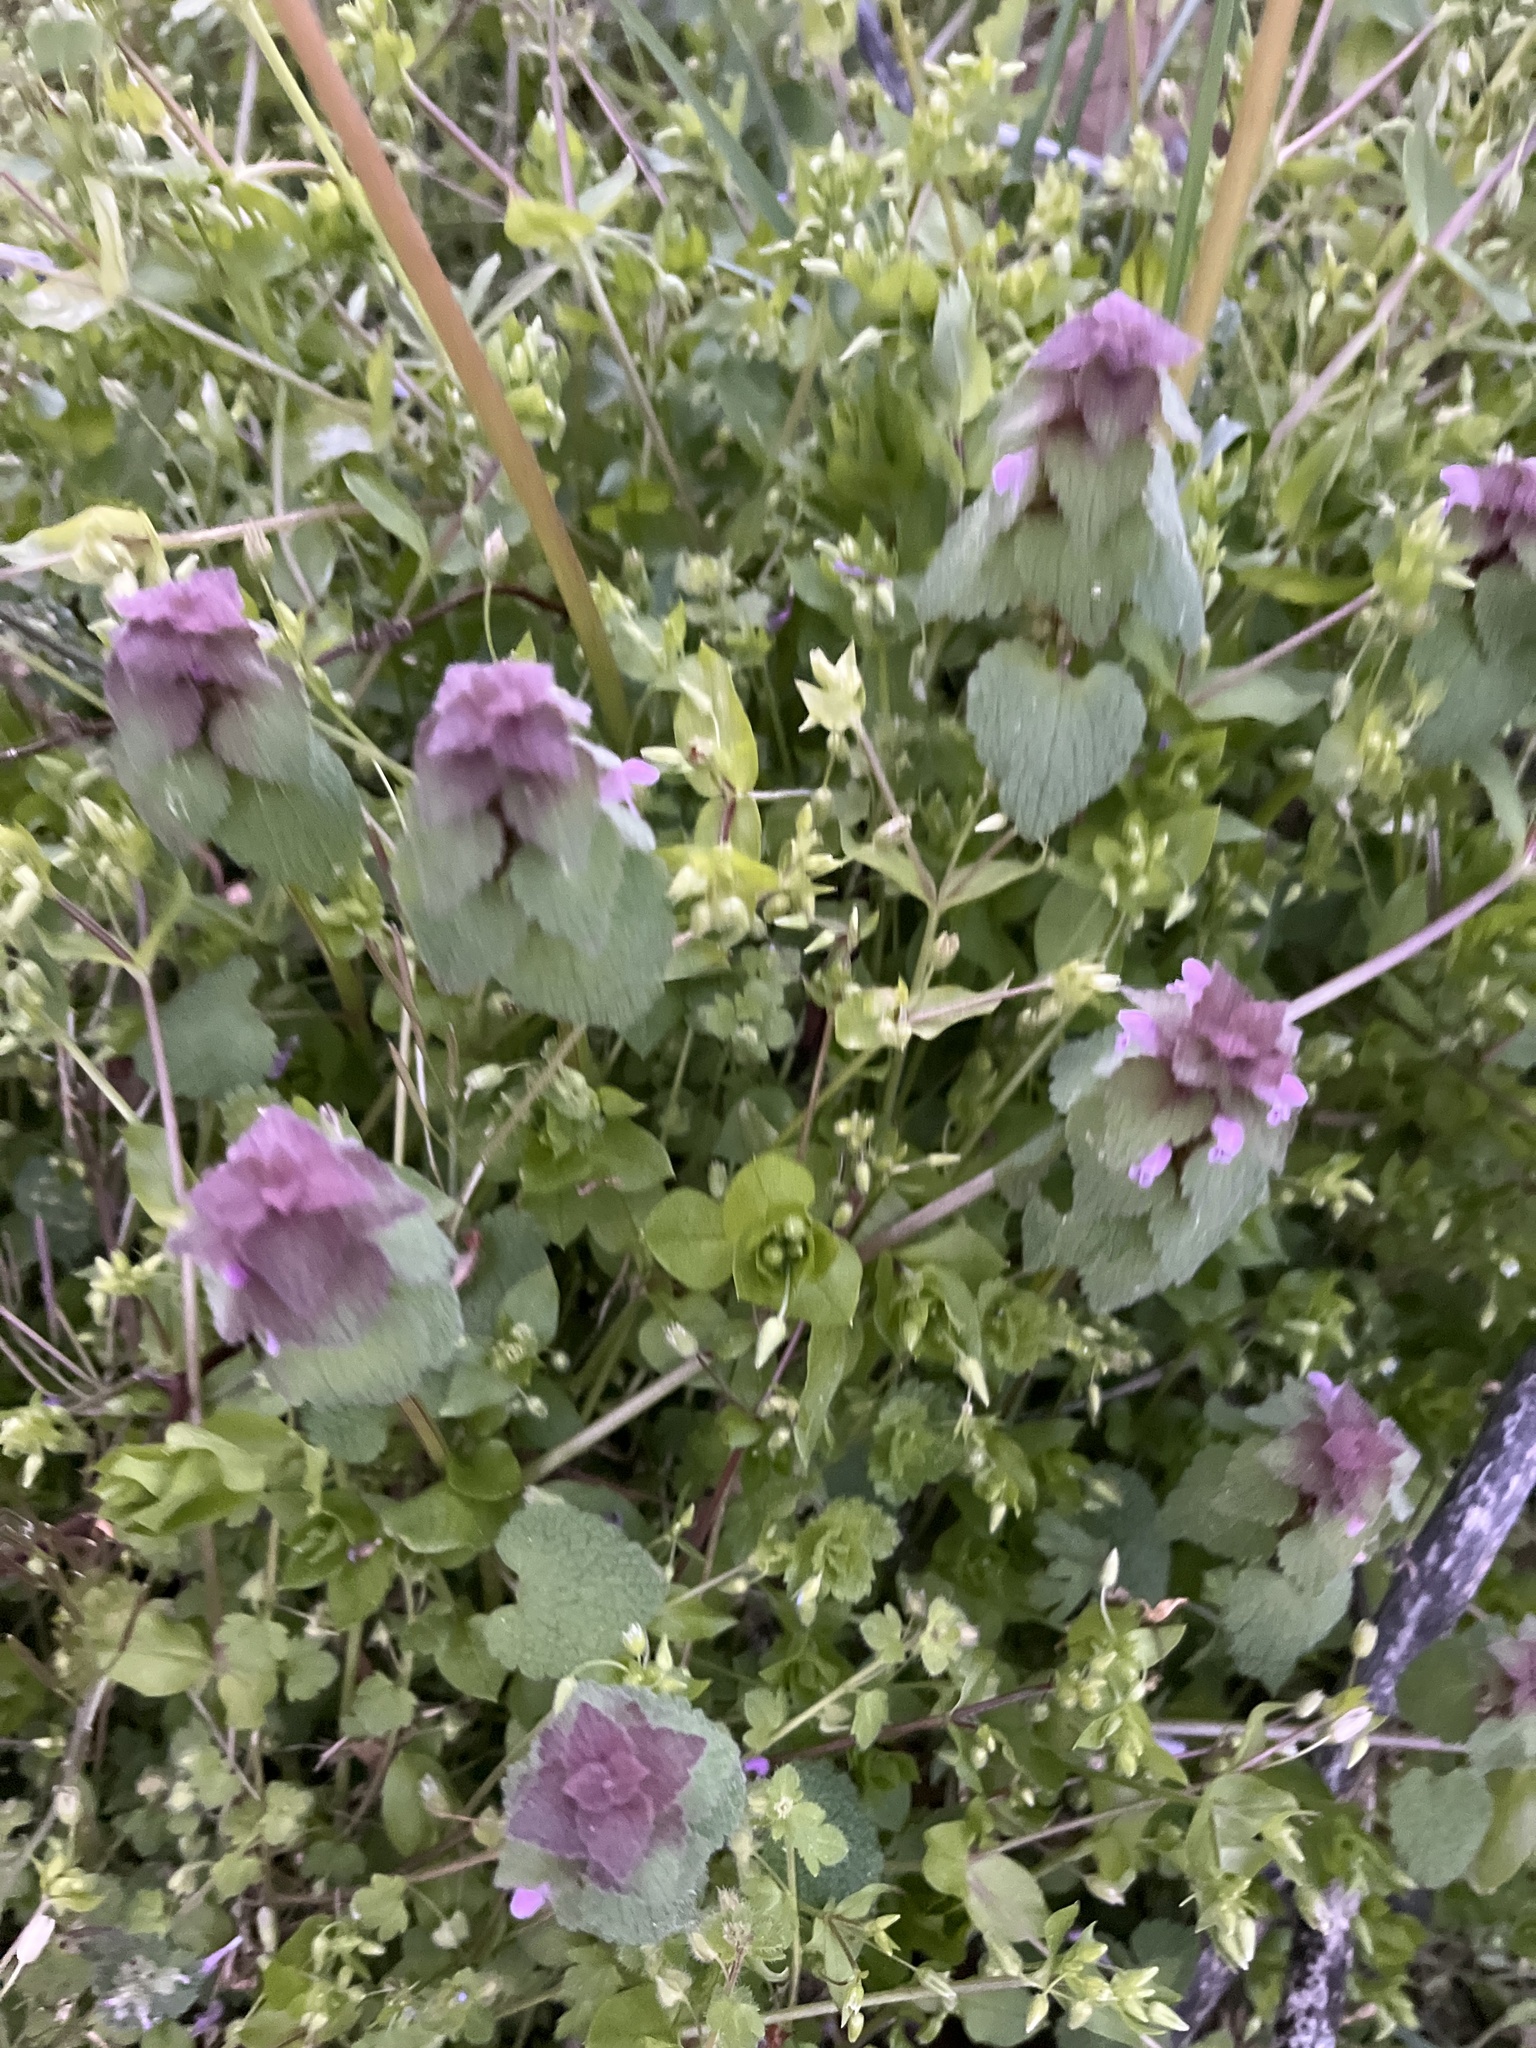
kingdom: Plantae
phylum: Tracheophyta
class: Magnoliopsida
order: Lamiales
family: Lamiaceae
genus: Lamium
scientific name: Lamium purpureum
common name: Red dead-nettle
